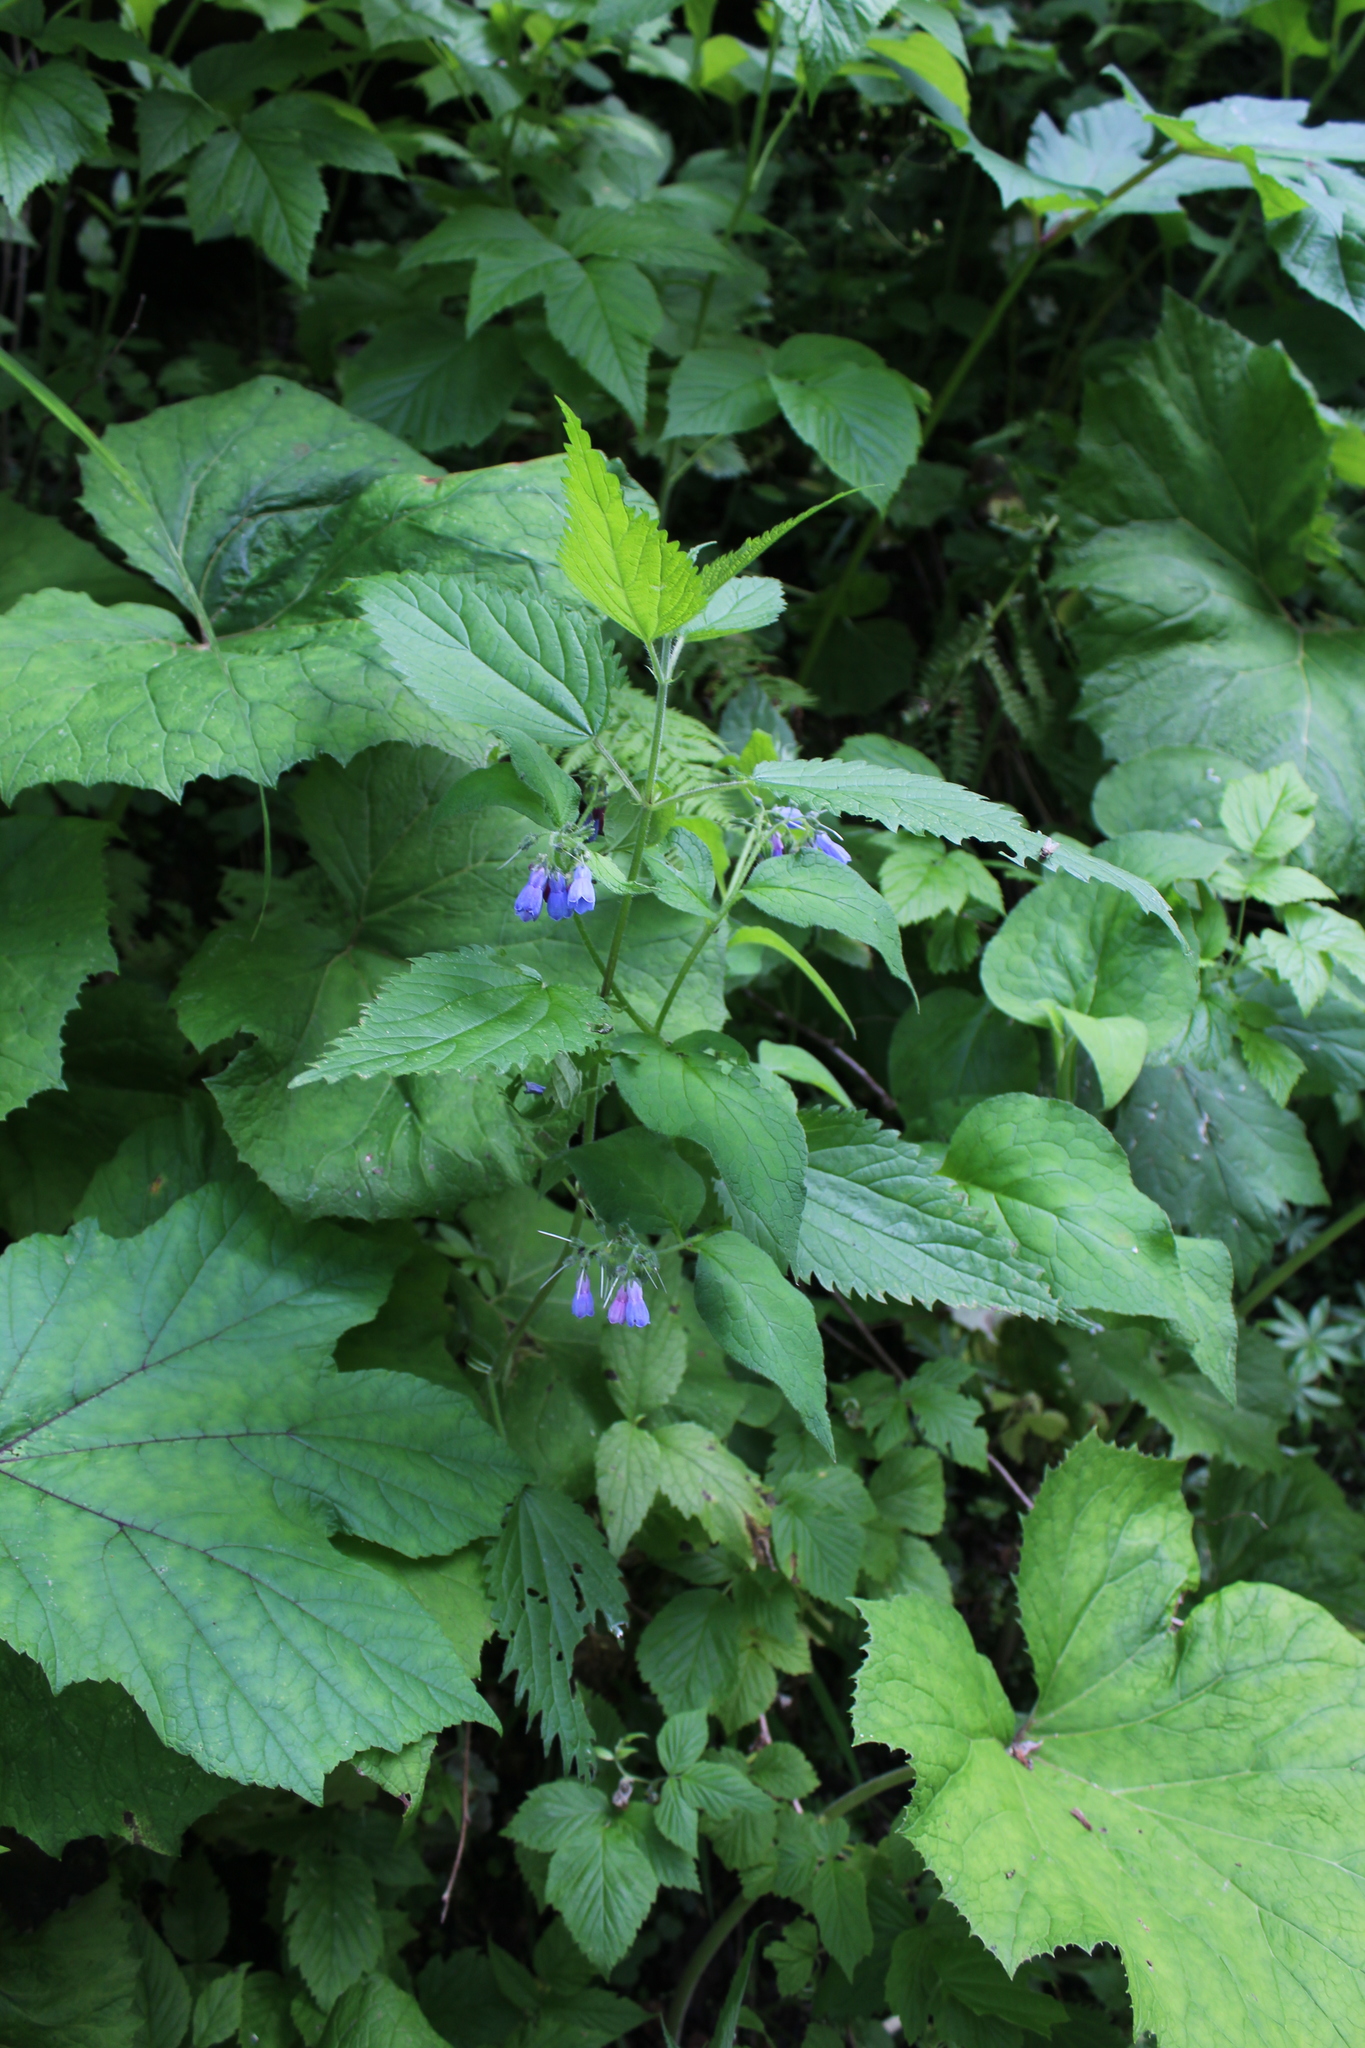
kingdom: Plantae
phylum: Tracheophyta
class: Magnoliopsida
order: Boraginales
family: Boraginaceae
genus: Symphytum
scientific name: Symphytum asperum
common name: Prickly comfrey
